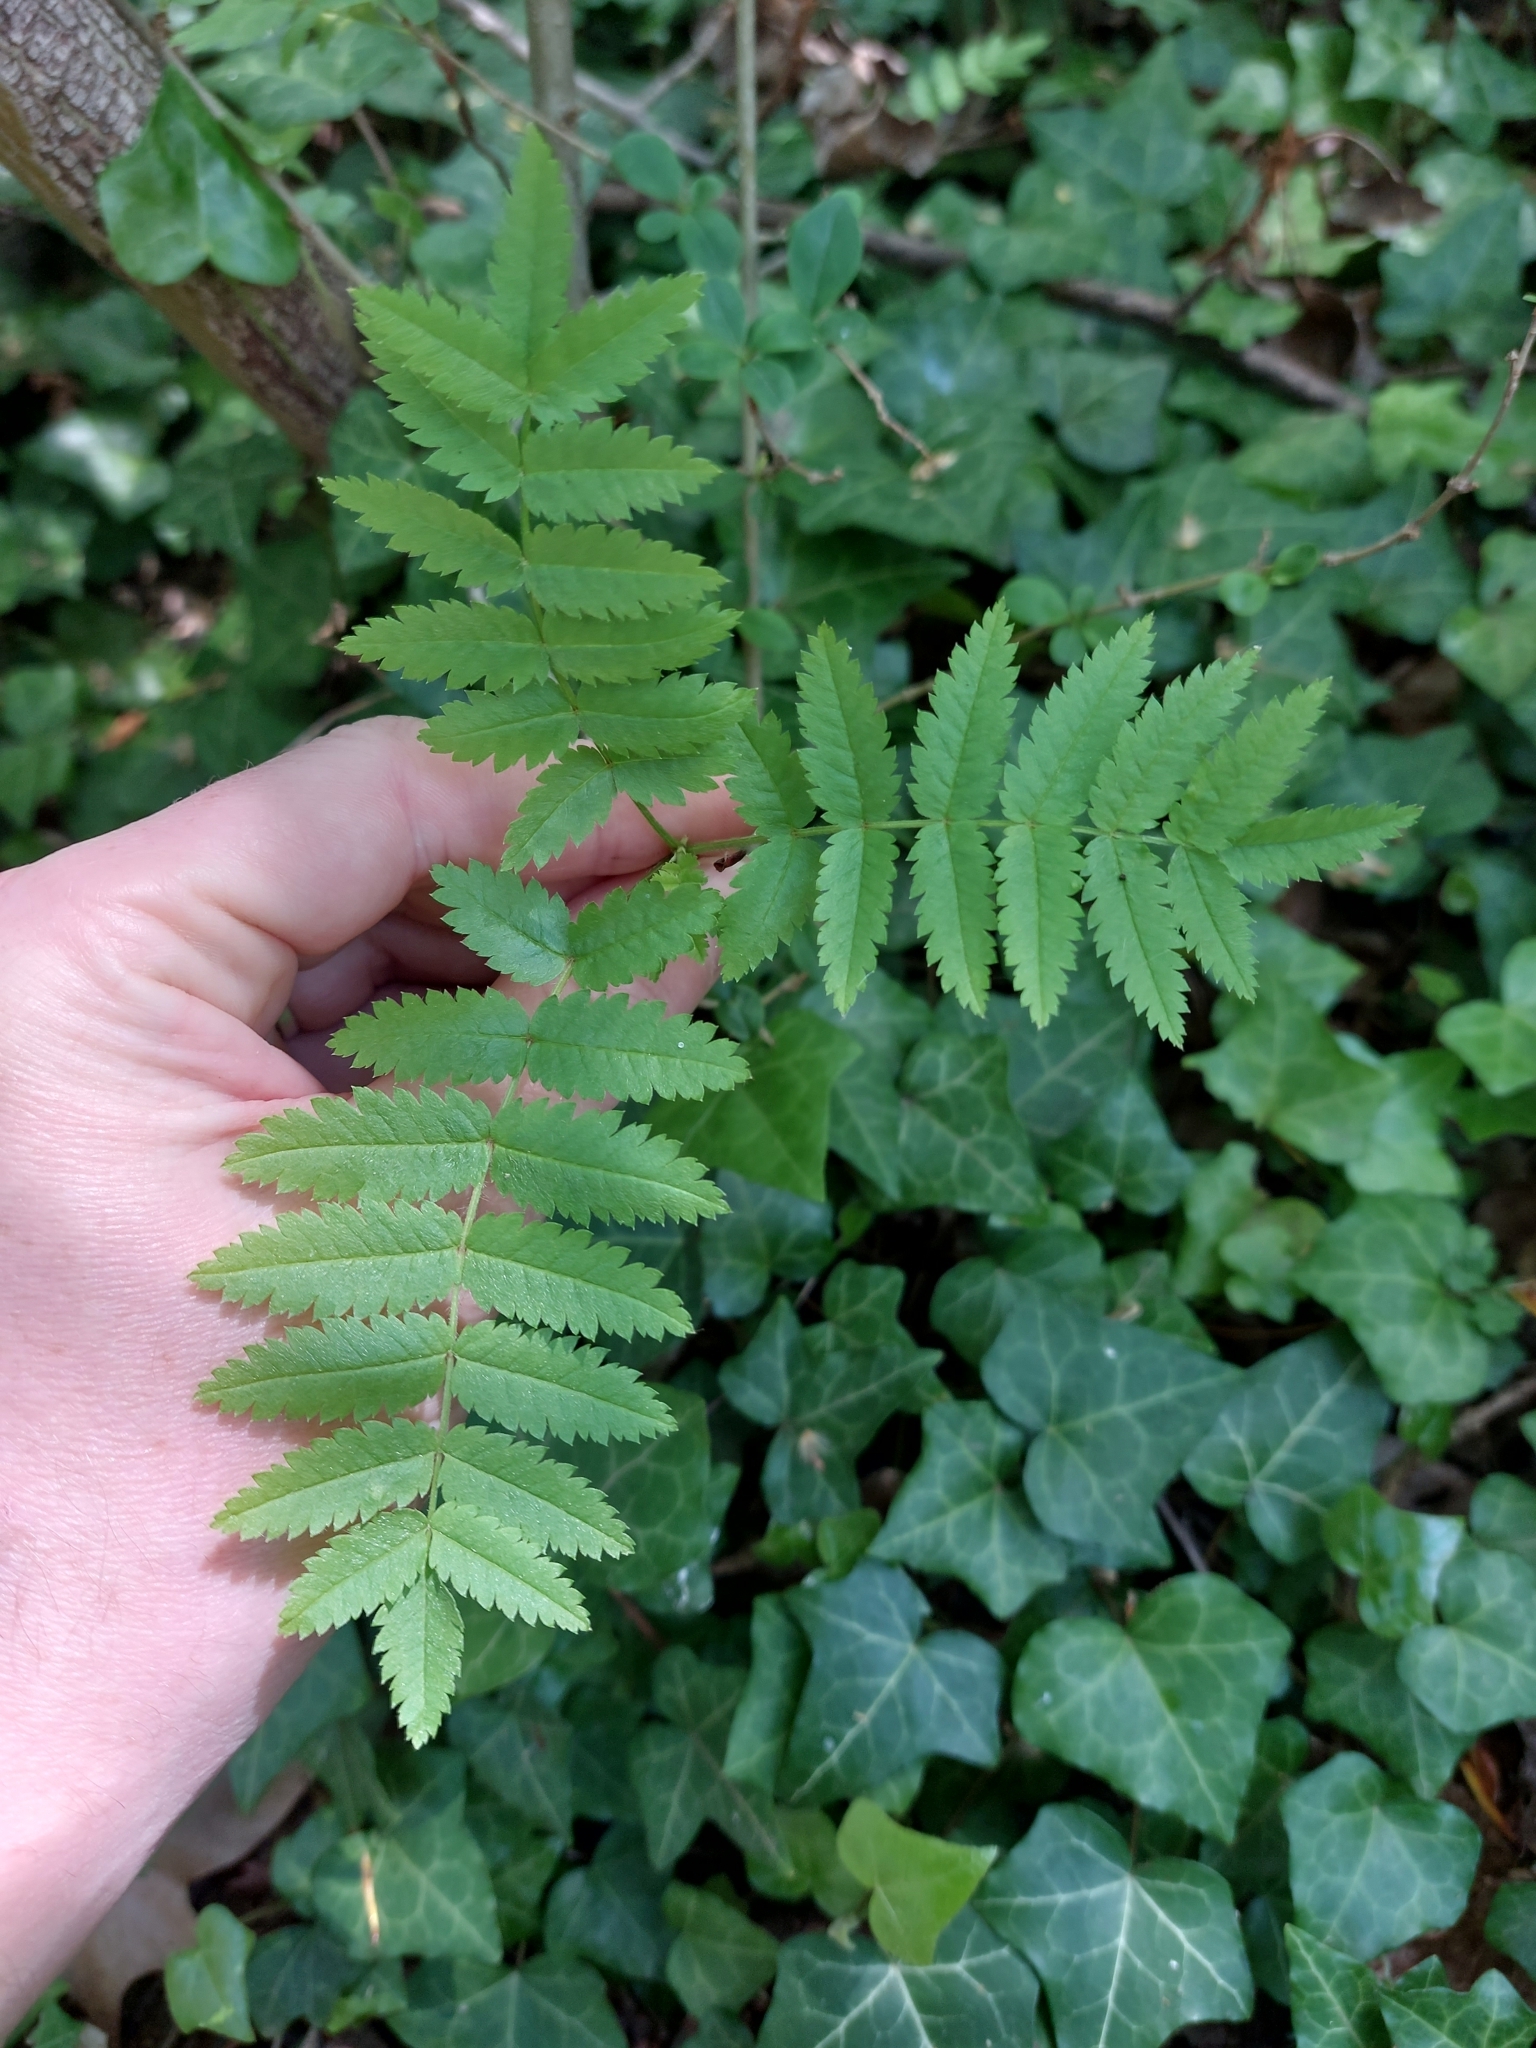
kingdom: Plantae
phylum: Tracheophyta
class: Magnoliopsida
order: Rosales
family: Rosaceae
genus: Sorbus
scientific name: Sorbus aucuparia
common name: Rowan
